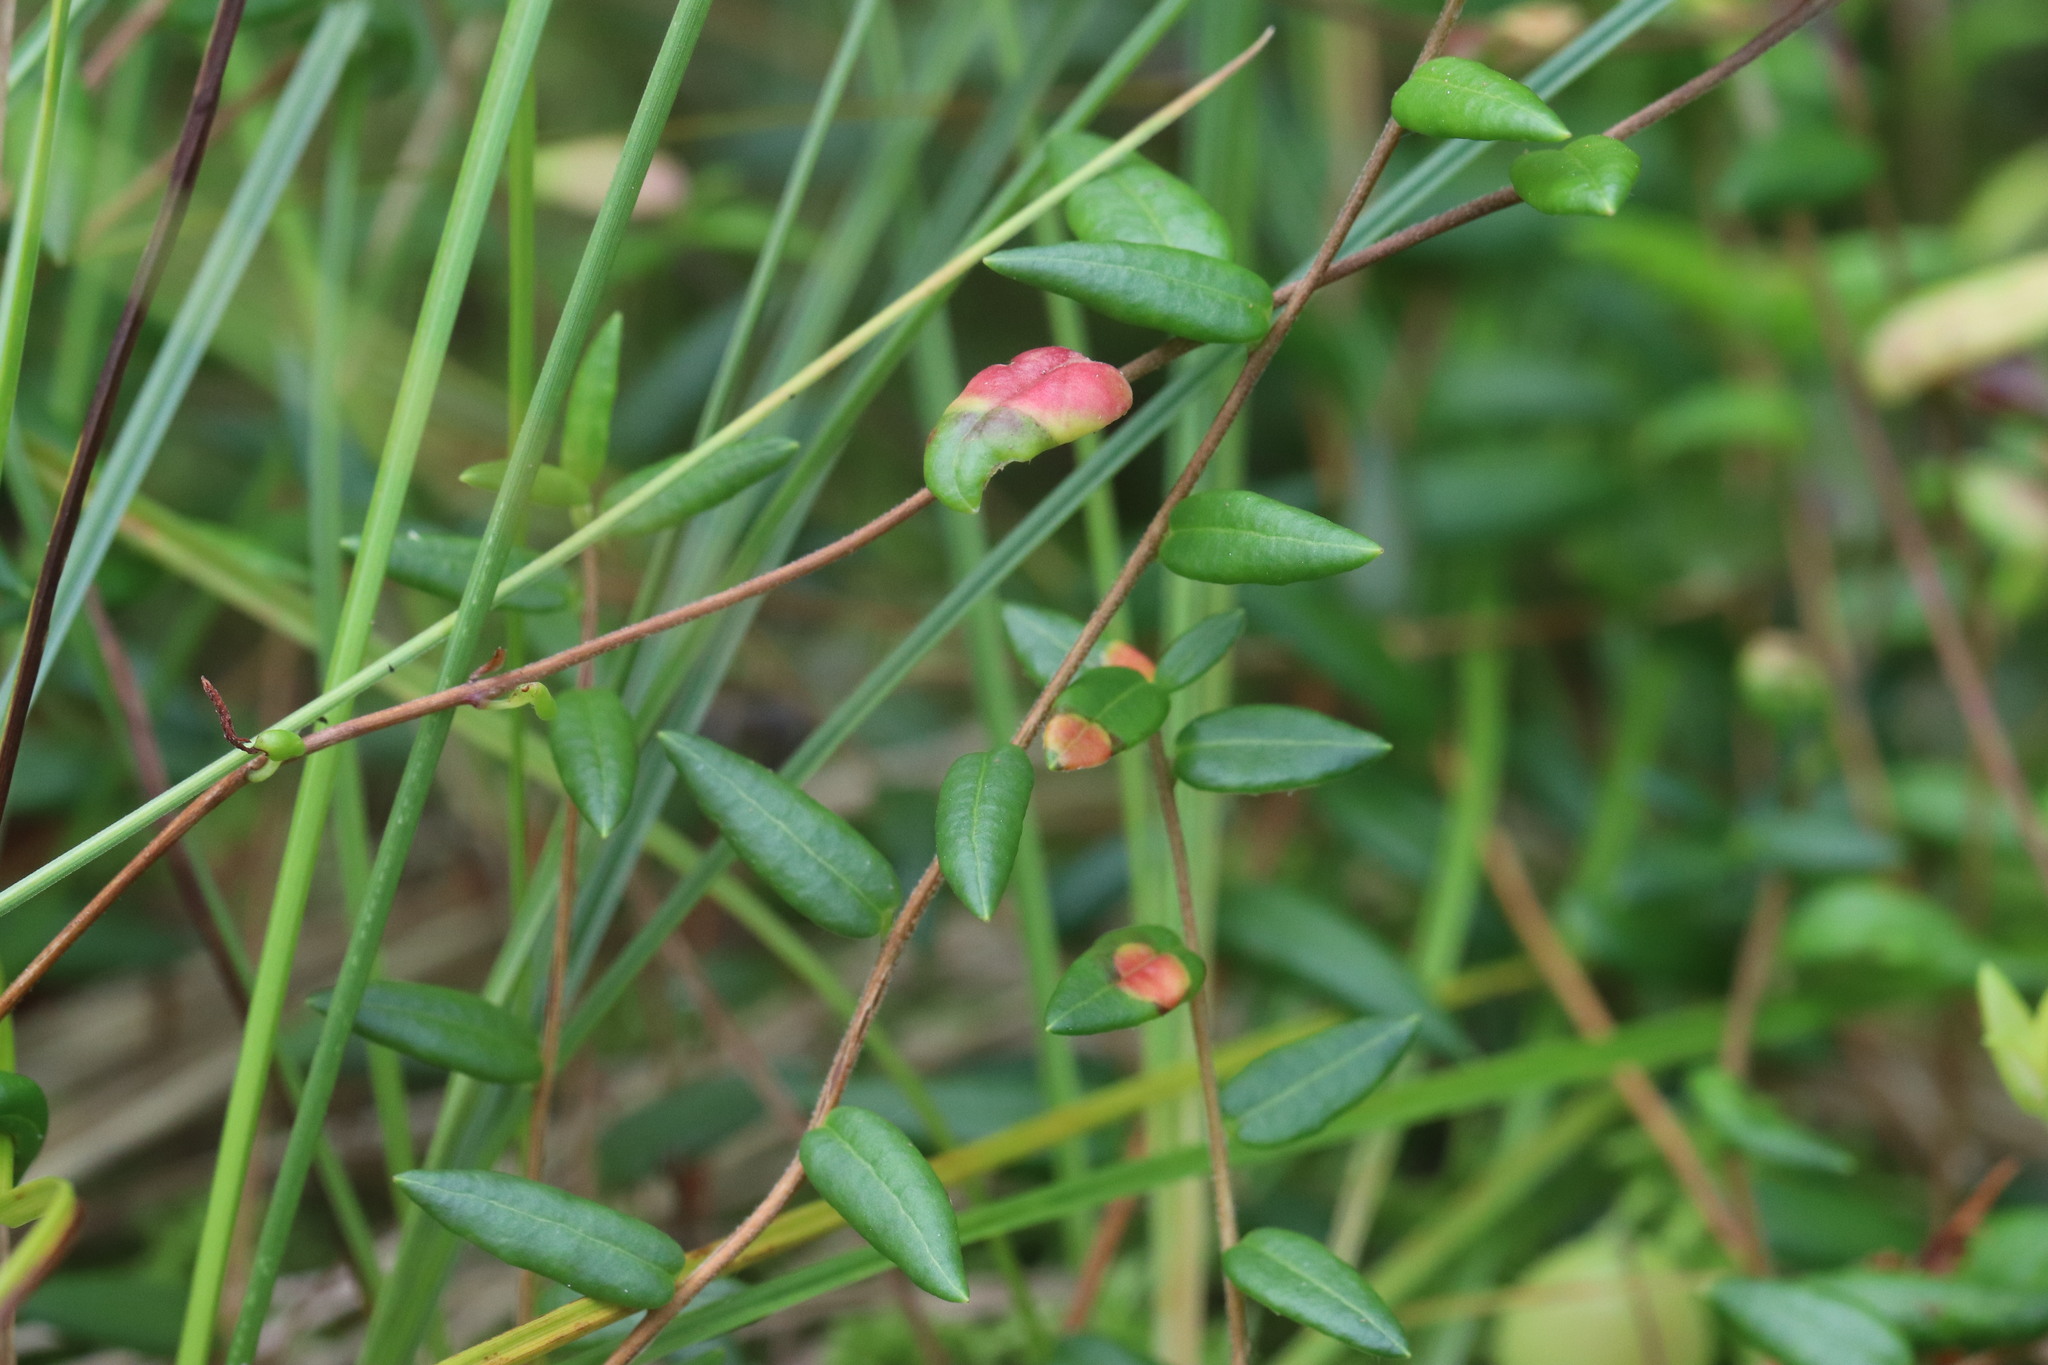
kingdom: Fungi
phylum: Basidiomycota
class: Exobasidiomycetes
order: Exobasidiales
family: Exobasidiaceae
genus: Exobasidium
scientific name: Exobasidium rostrupii
